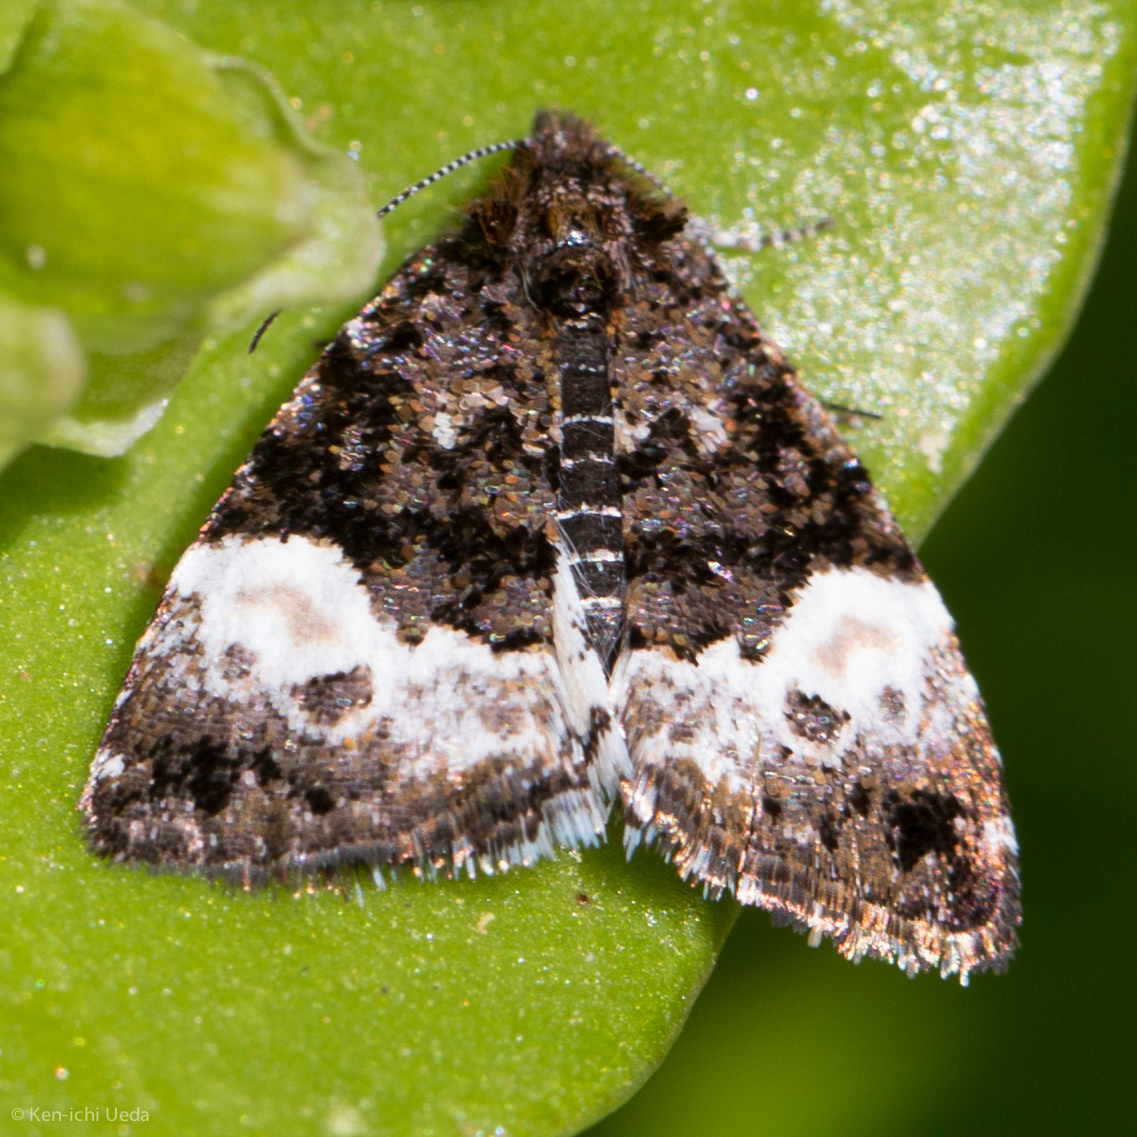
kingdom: Animalia
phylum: Arthropoda
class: Insecta
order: Lepidoptera
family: Noctuidae
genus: Annaphila
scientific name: Annaphila diva
